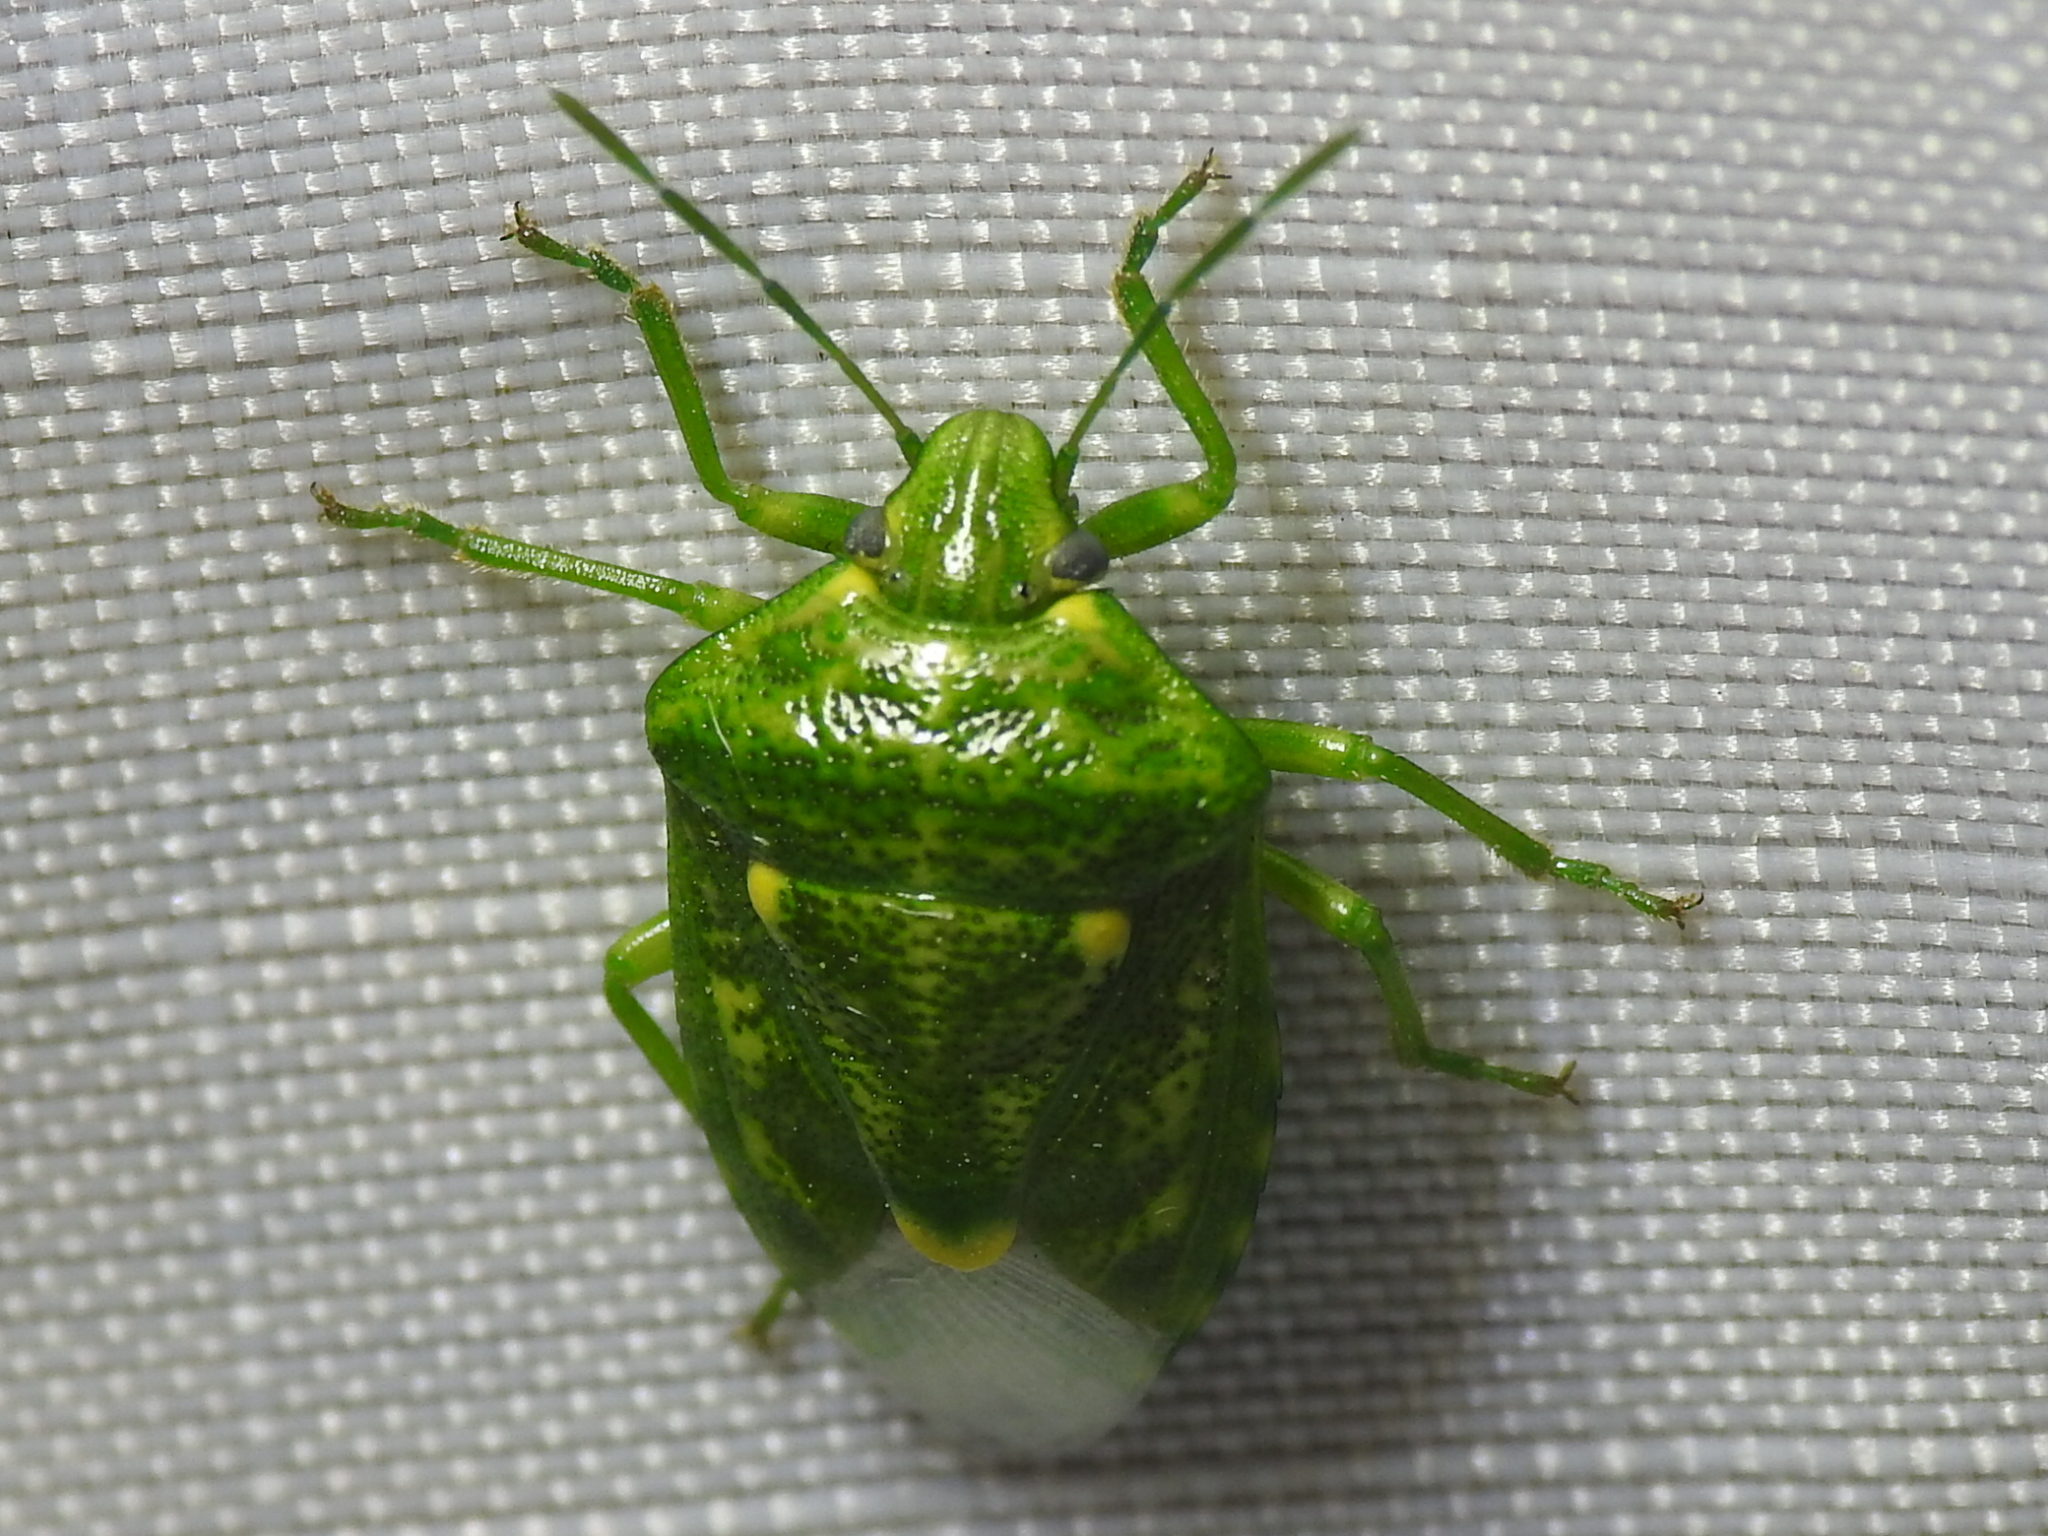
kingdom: Animalia
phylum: Arthropoda
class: Insecta
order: Hemiptera
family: Pentatomidae
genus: Banasa
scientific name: Banasa euchlora
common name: Cedar berry bug
